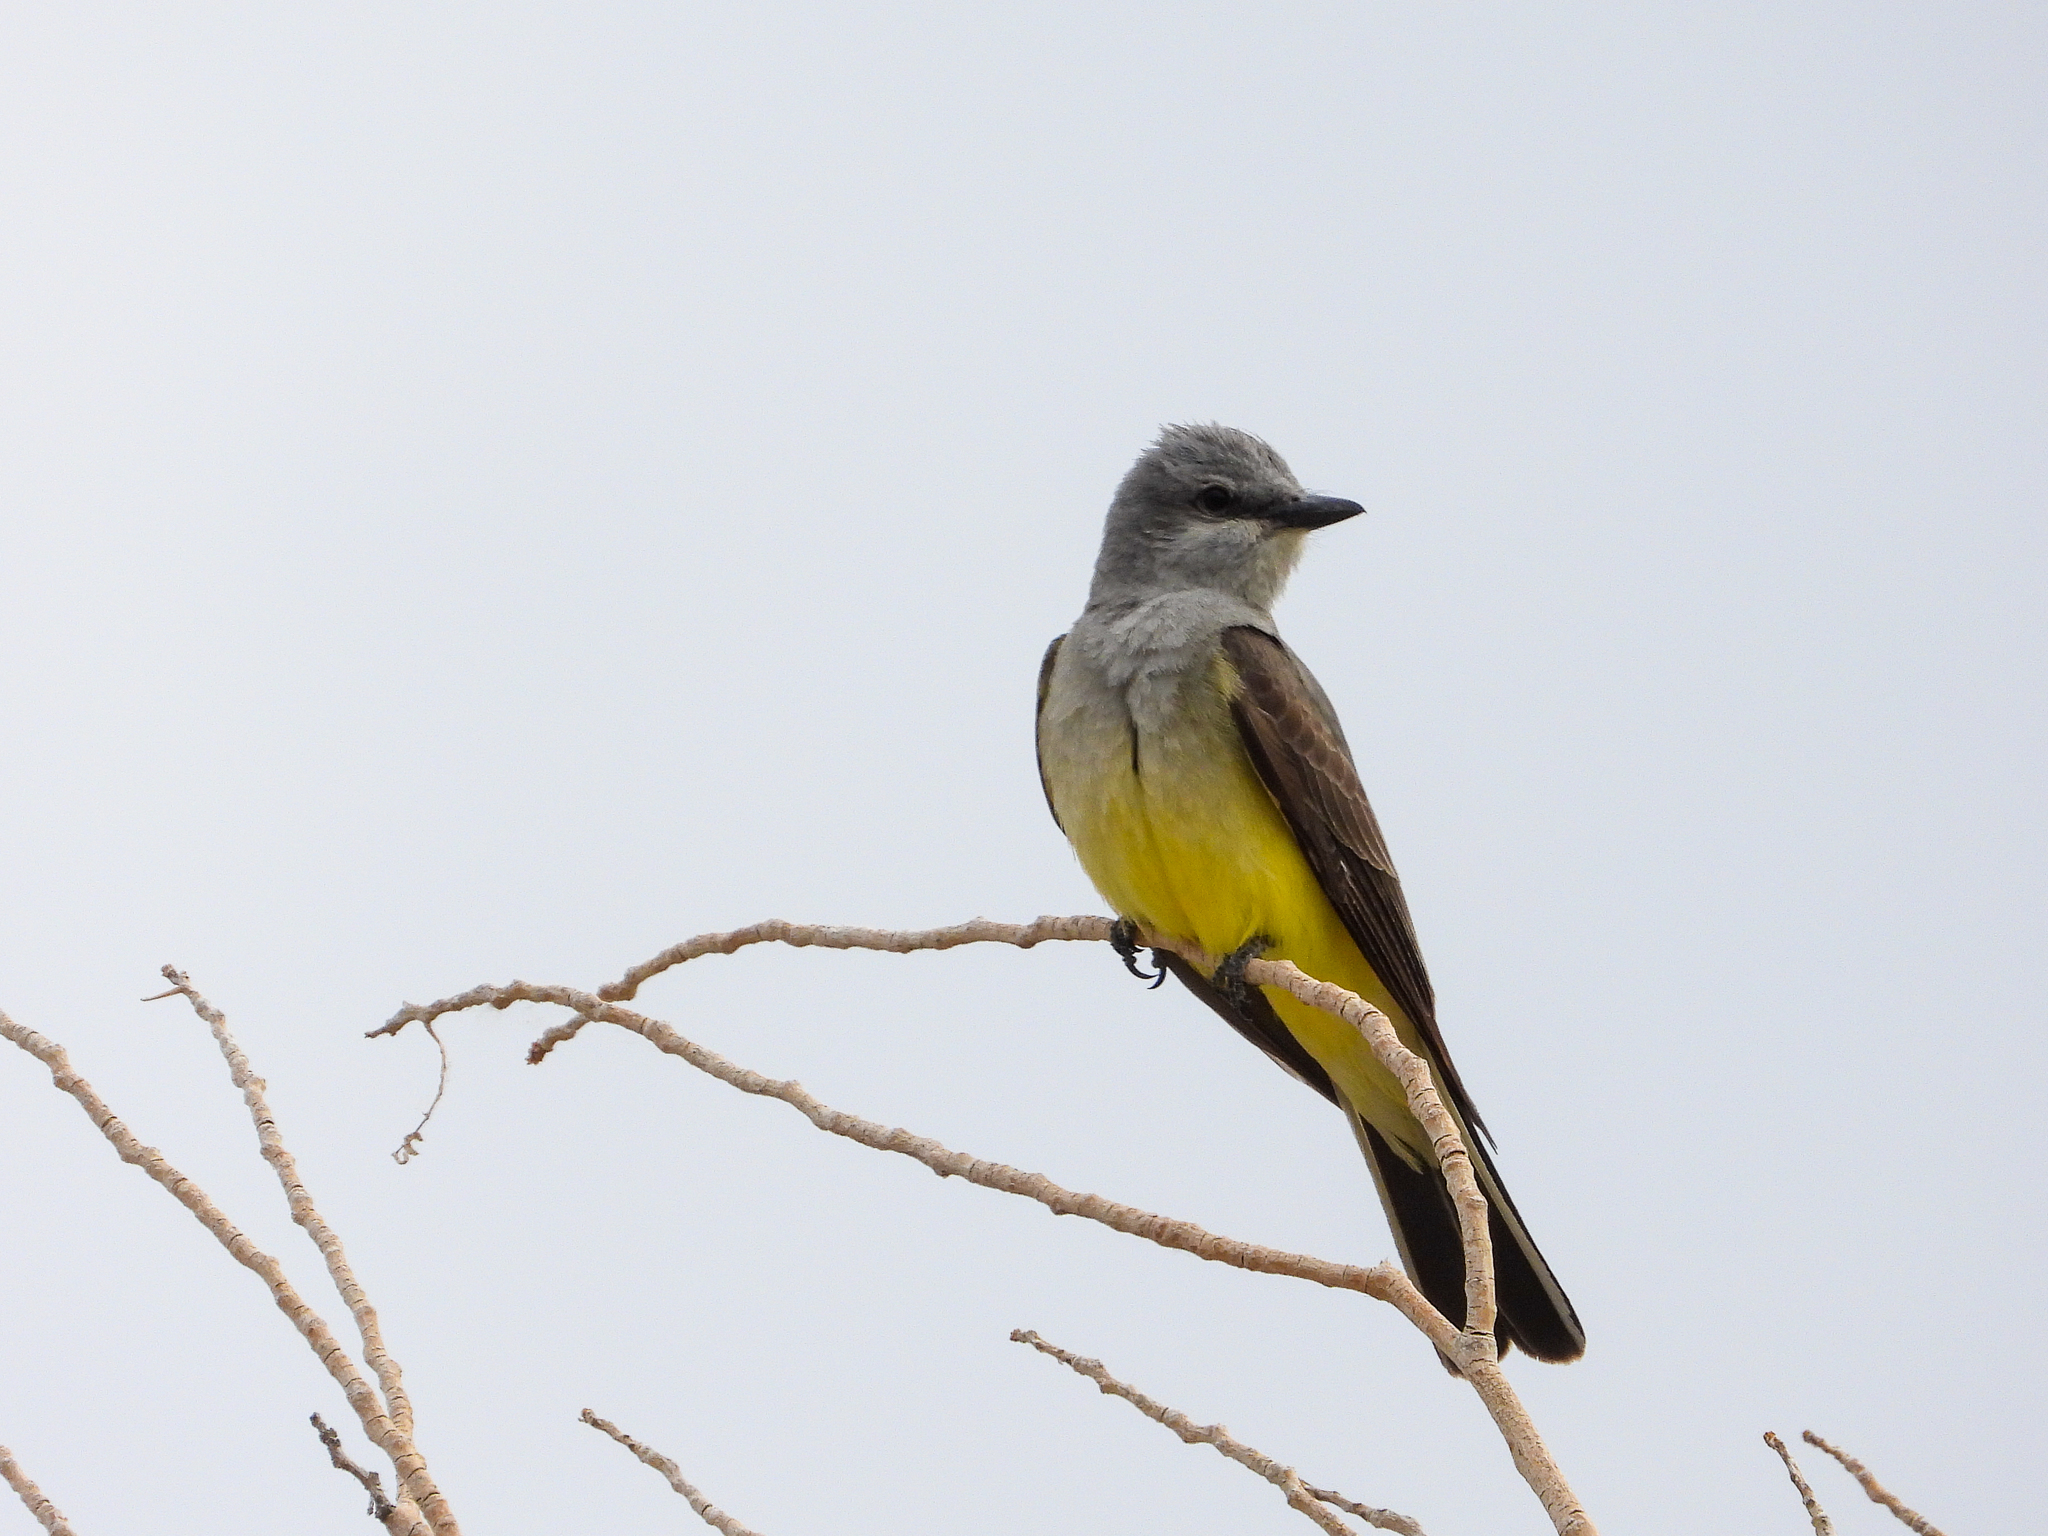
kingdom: Animalia
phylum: Chordata
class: Aves
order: Passeriformes
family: Tyrannidae
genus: Tyrannus
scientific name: Tyrannus verticalis
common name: Western kingbird
